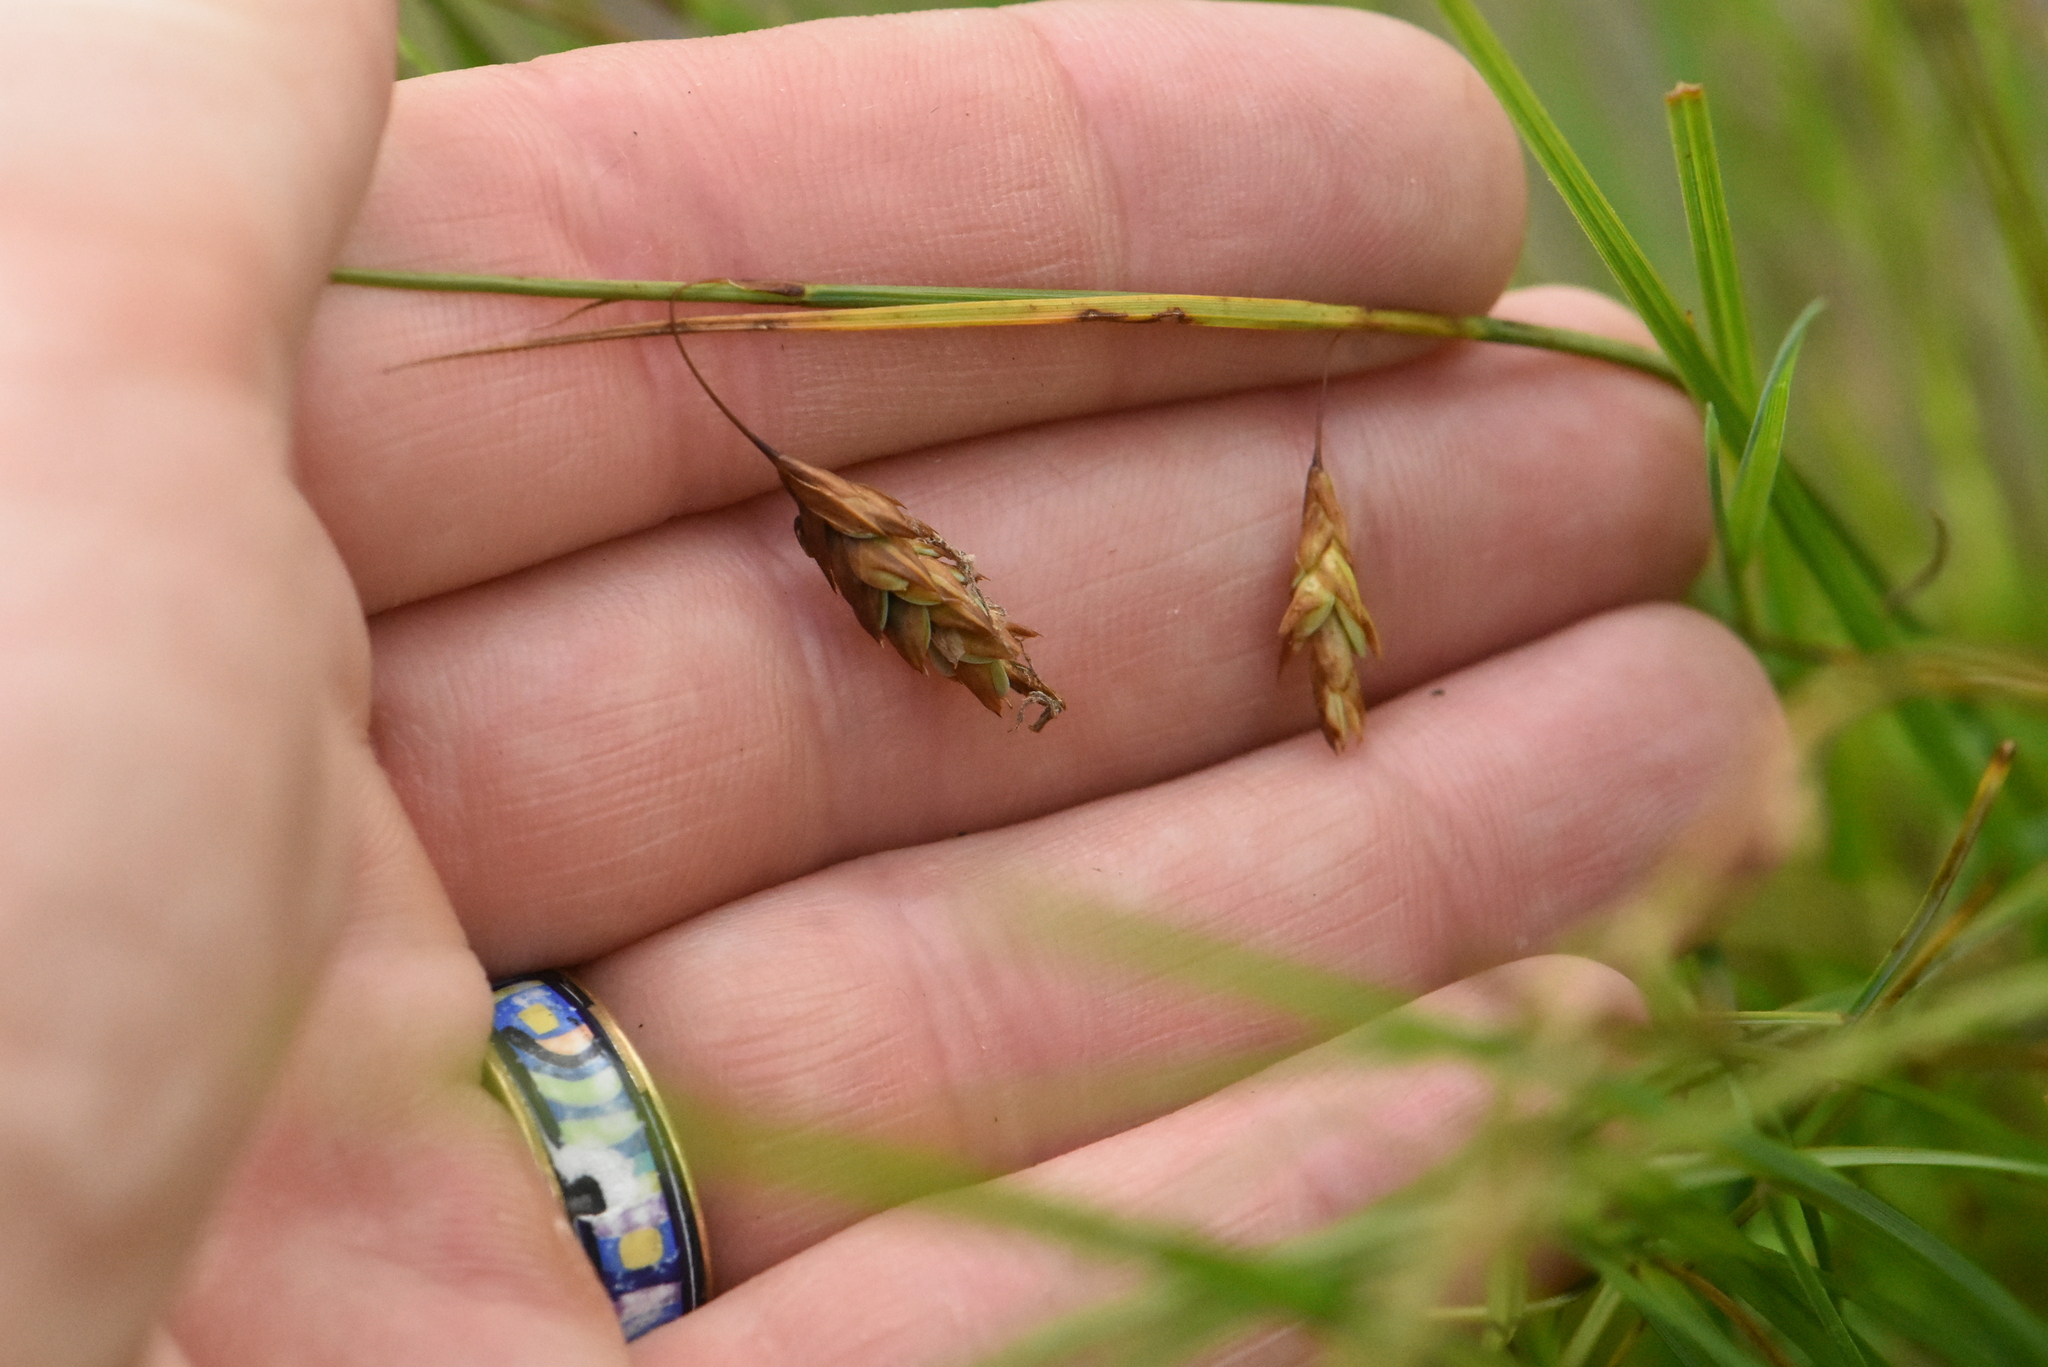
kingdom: Plantae
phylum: Tracheophyta
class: Liliopsida
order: Poales
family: Cyperaceae
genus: Carex
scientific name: Carex limosa
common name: Bog sedge
